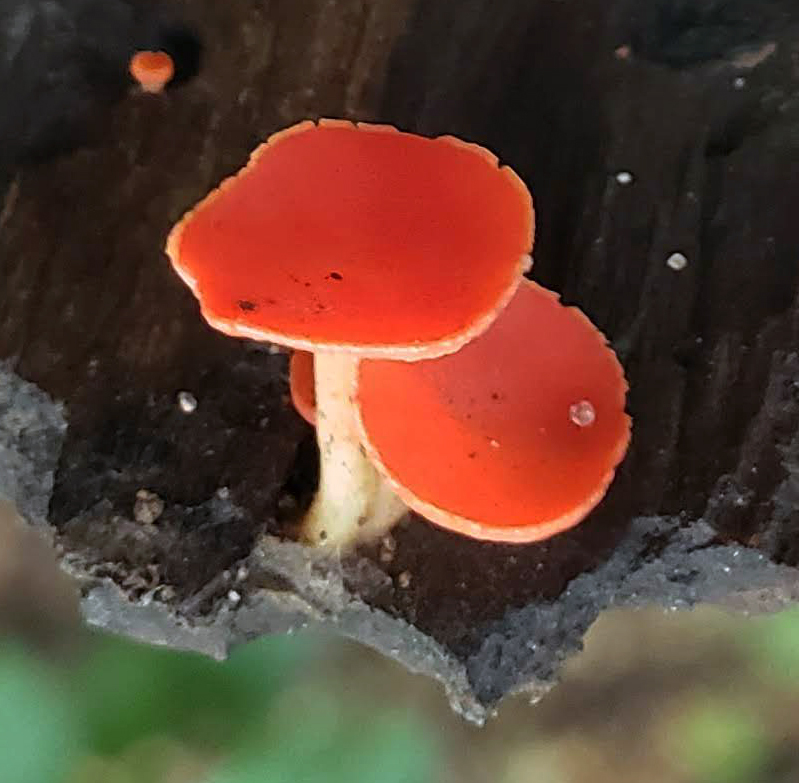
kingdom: Fungi
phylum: Ascomycota
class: Pezizomycetes
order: Pezizales
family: Sarcoscyphaceae
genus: Sarcoscypha
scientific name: Sarcoscypha occidentalis
